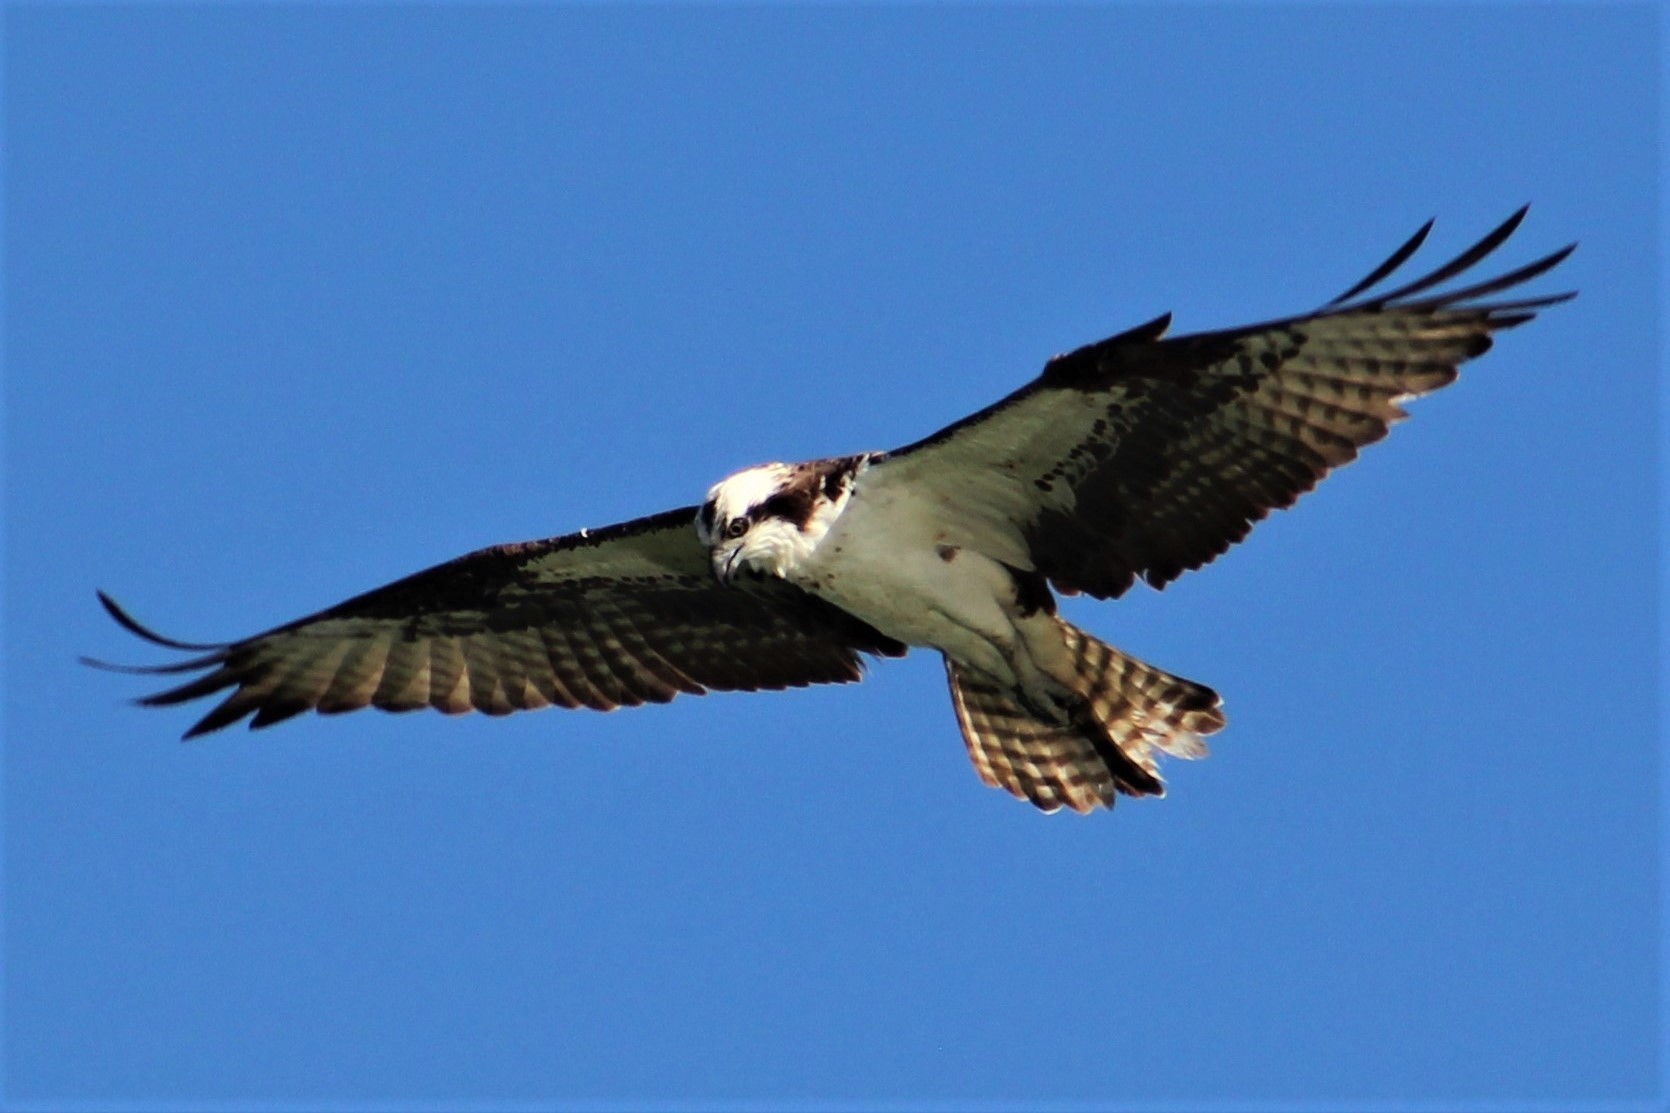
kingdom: Animalia
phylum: Chordata
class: Aves
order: Accipitriformes
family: Pandionidae
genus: Pandion
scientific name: Pandion haliaetus
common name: Osprey
